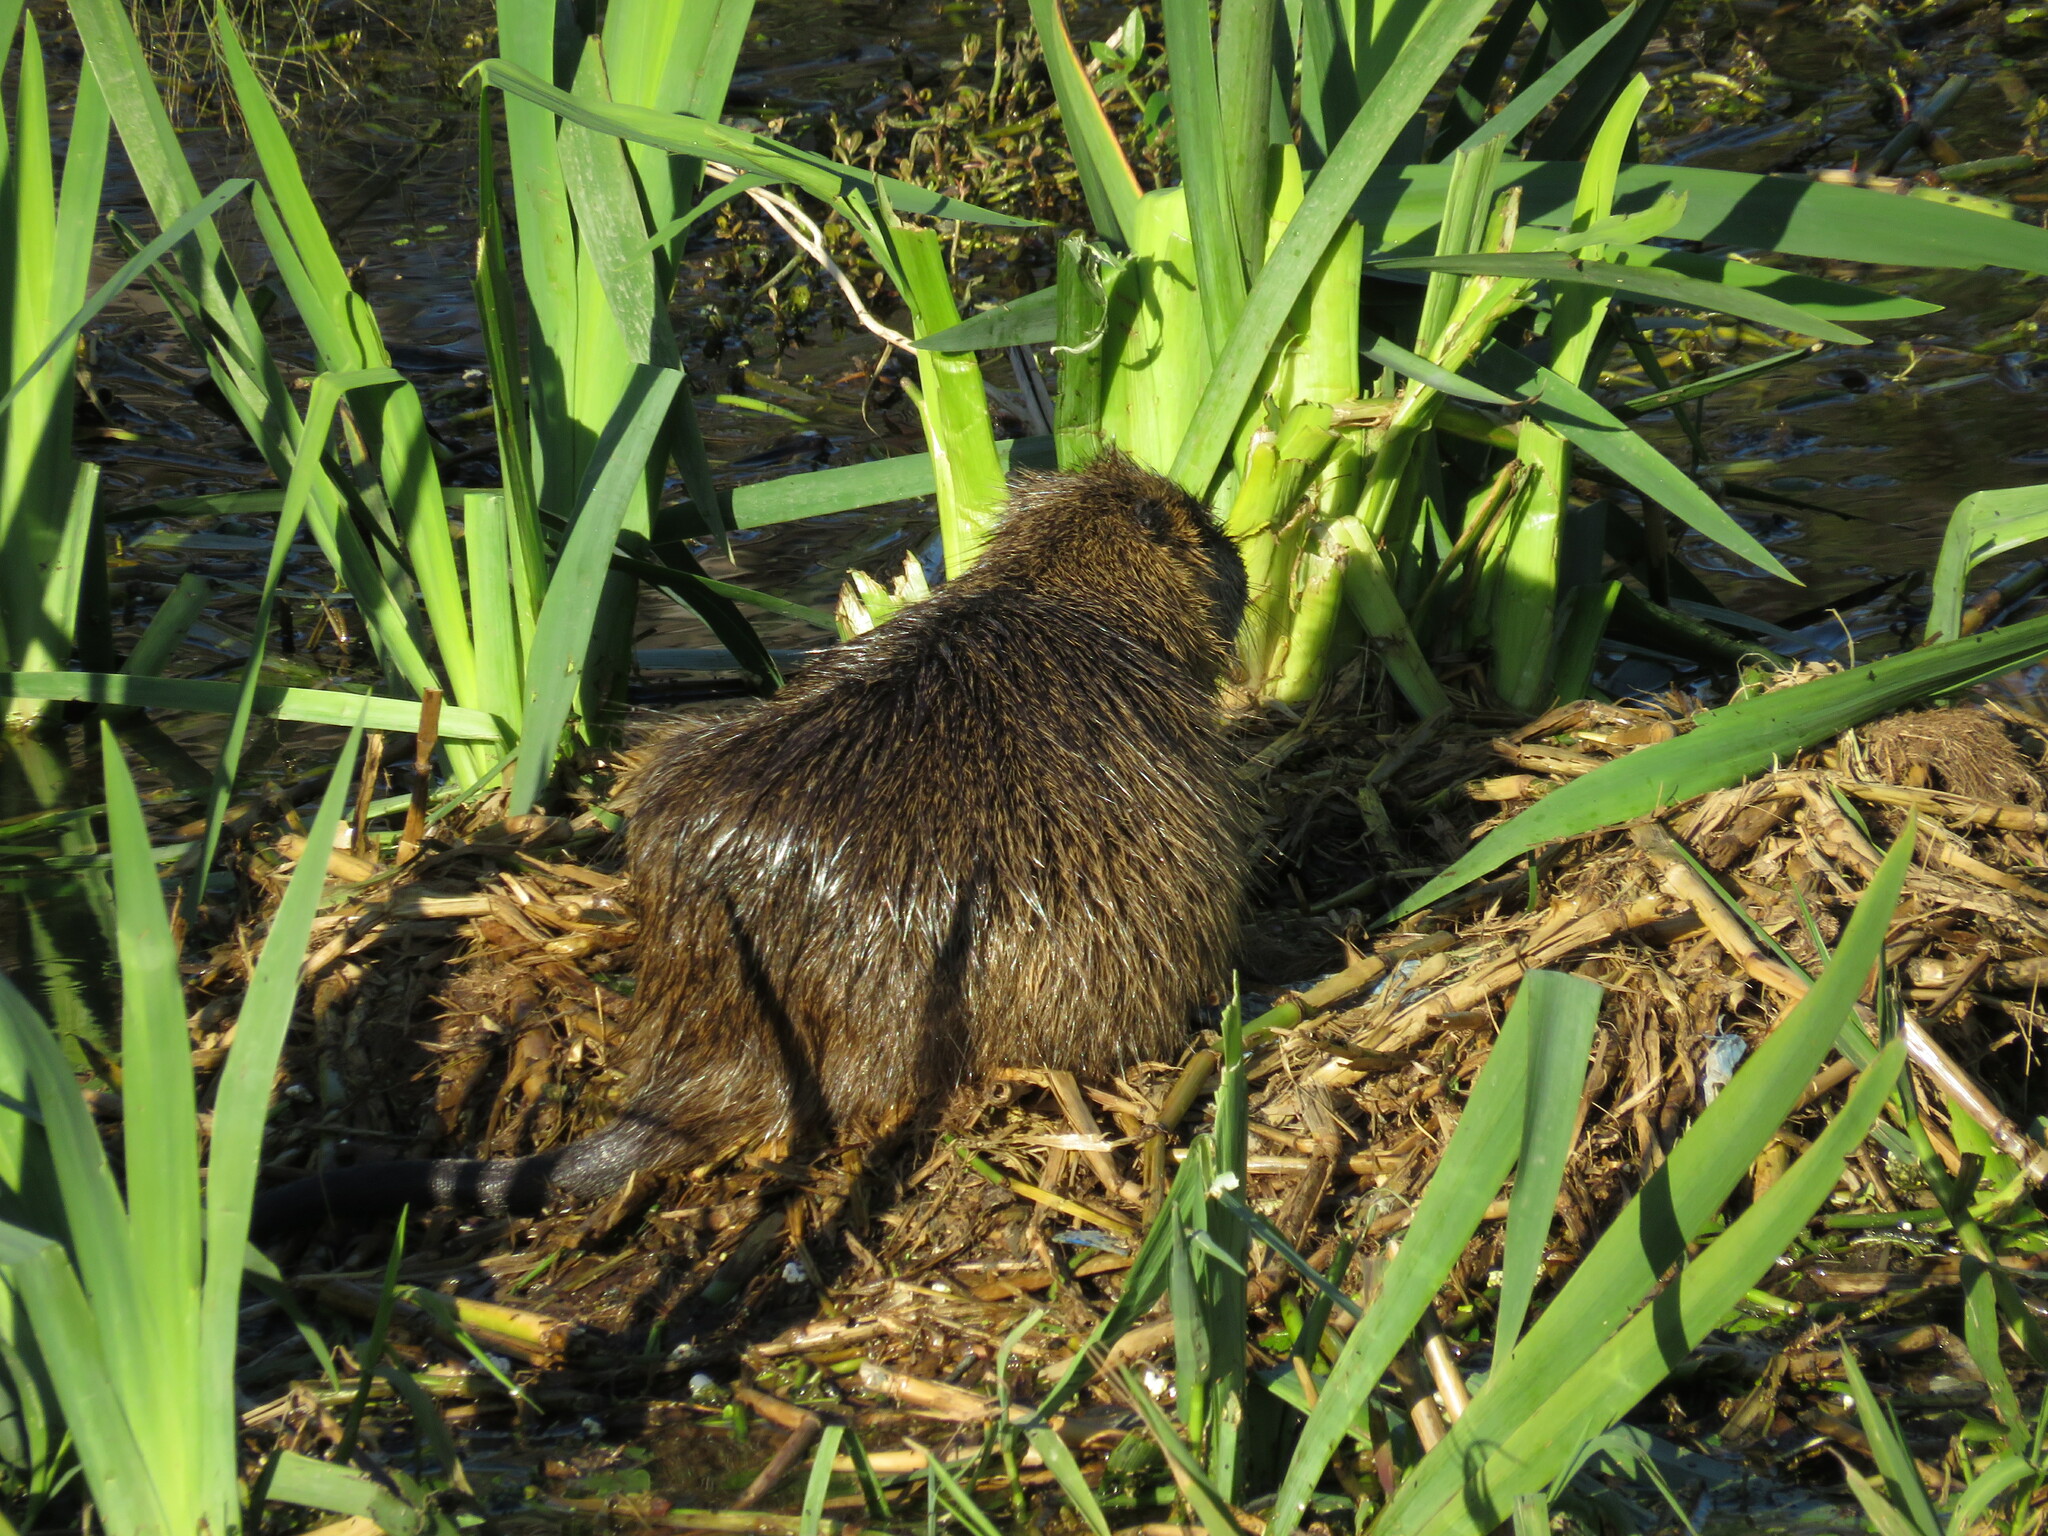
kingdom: Animalia
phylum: Chordata
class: Mammalia
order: Rodentia
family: Myocastoridae
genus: Myocastor
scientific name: Myocastor coypus
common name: Coypu
